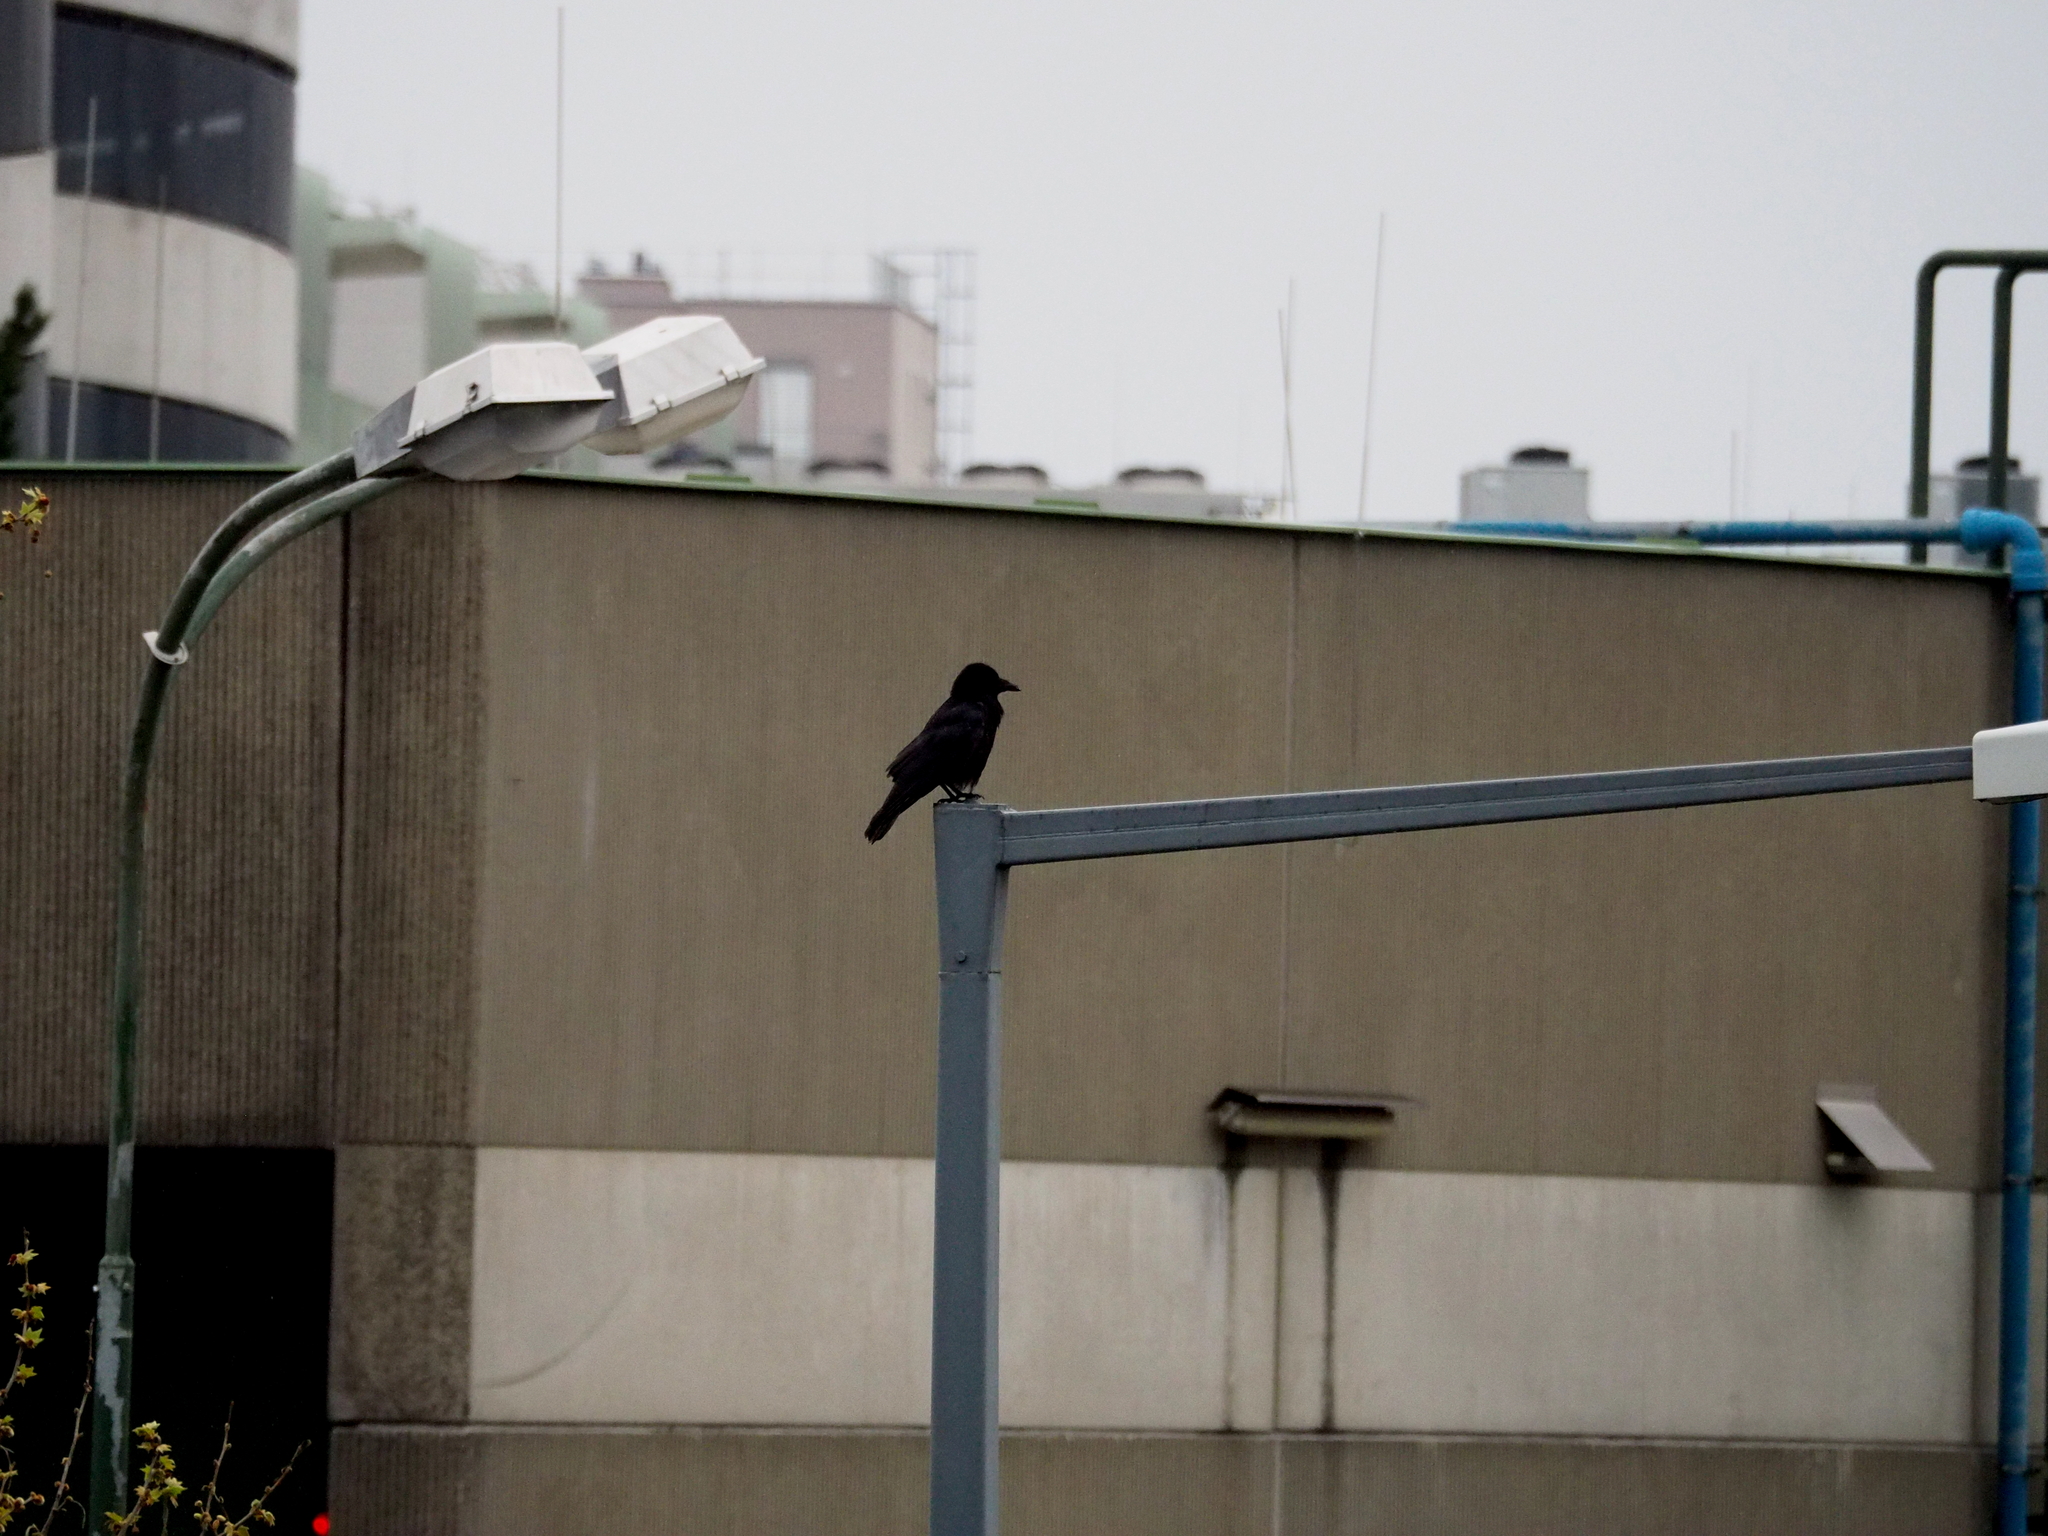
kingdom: Animalia
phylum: Chordata
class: Aves
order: Passeriformes
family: Corvidae
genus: Corvus
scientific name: Corvus corone
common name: Carrion crow
